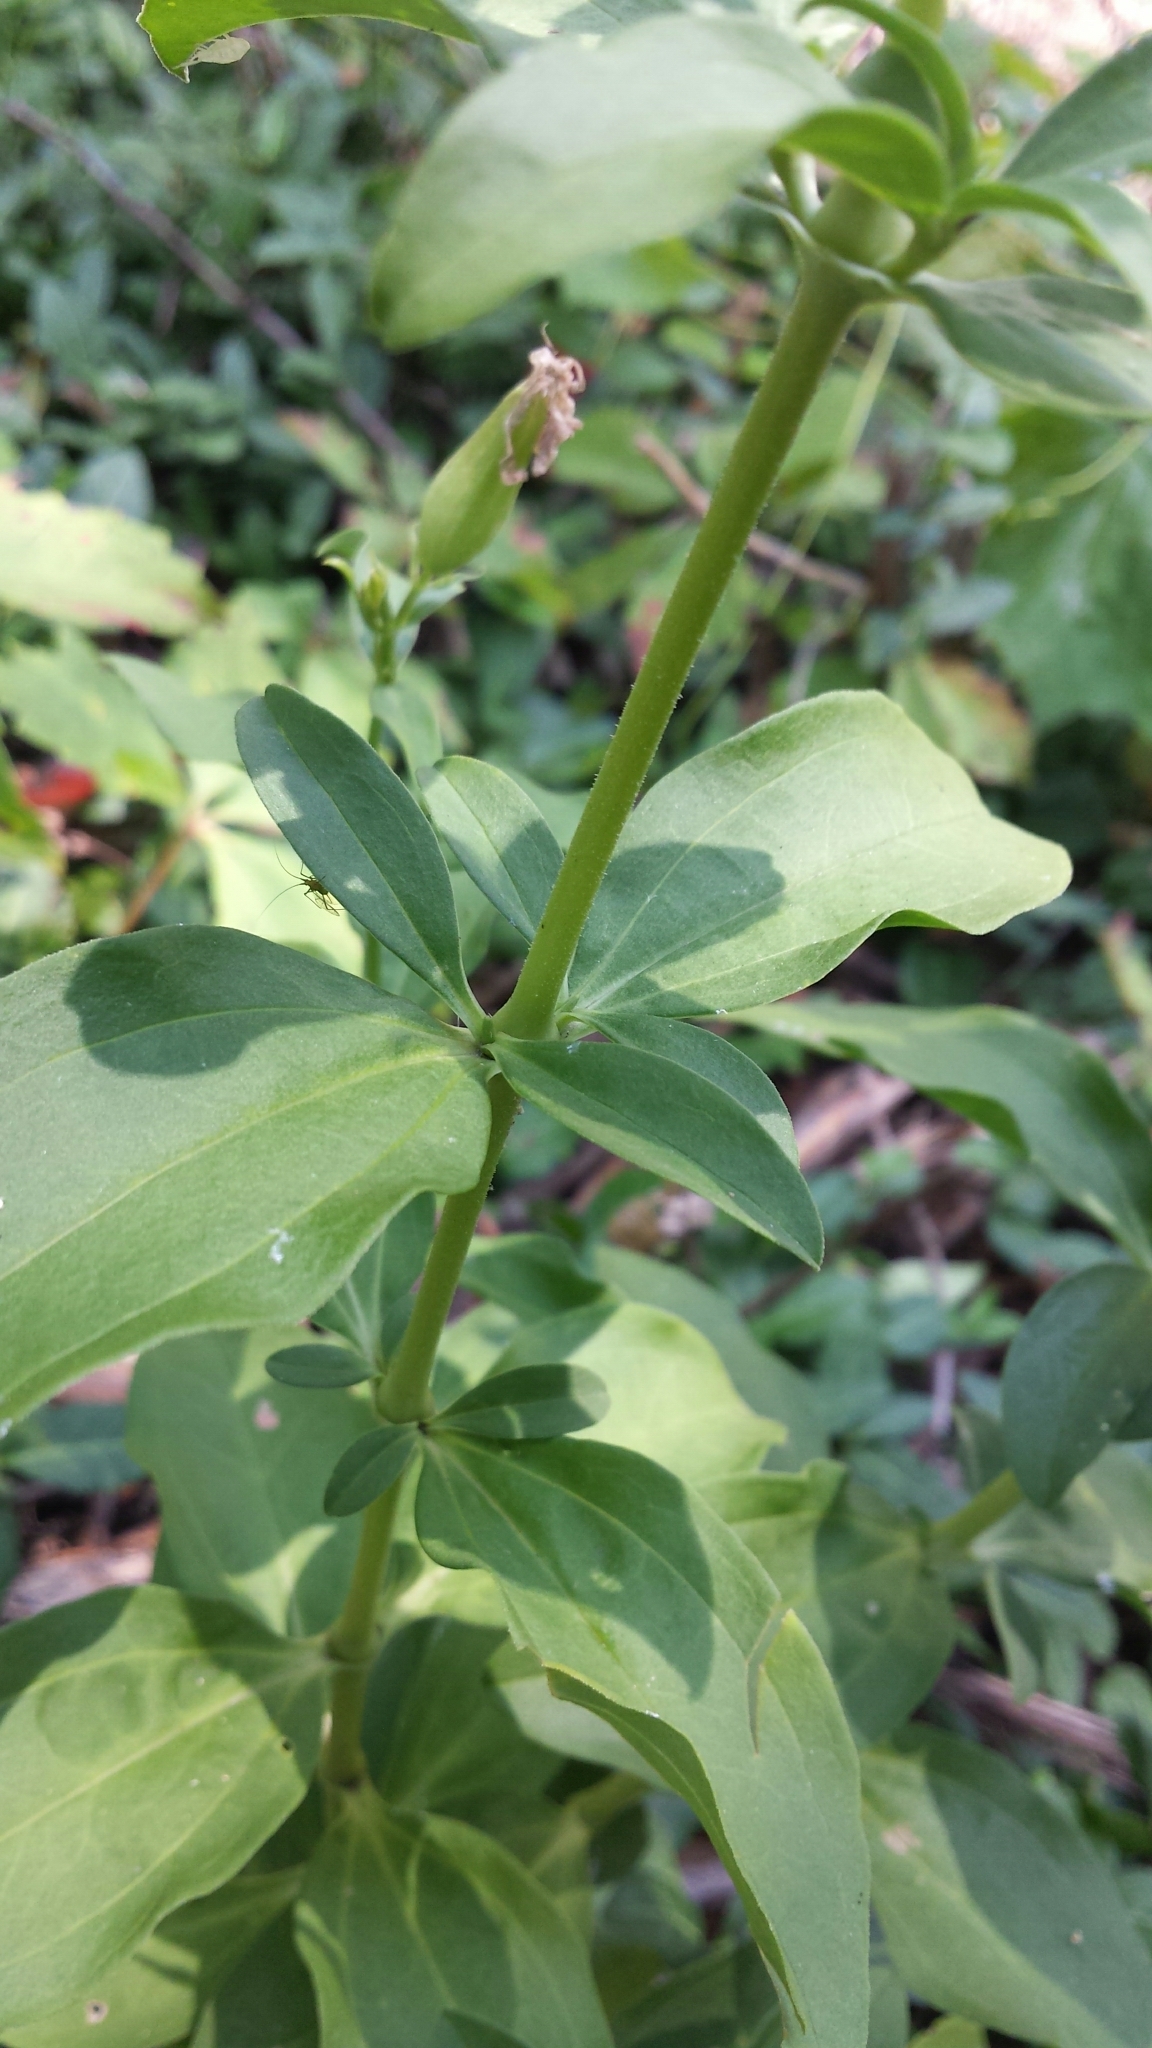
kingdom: Plantae
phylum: Tracheophyta
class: Magnoliopsida
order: Caryophyllales
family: Caryophyllaceae
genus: Saponaria
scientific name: Saponaria officinalis
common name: Soapwort
